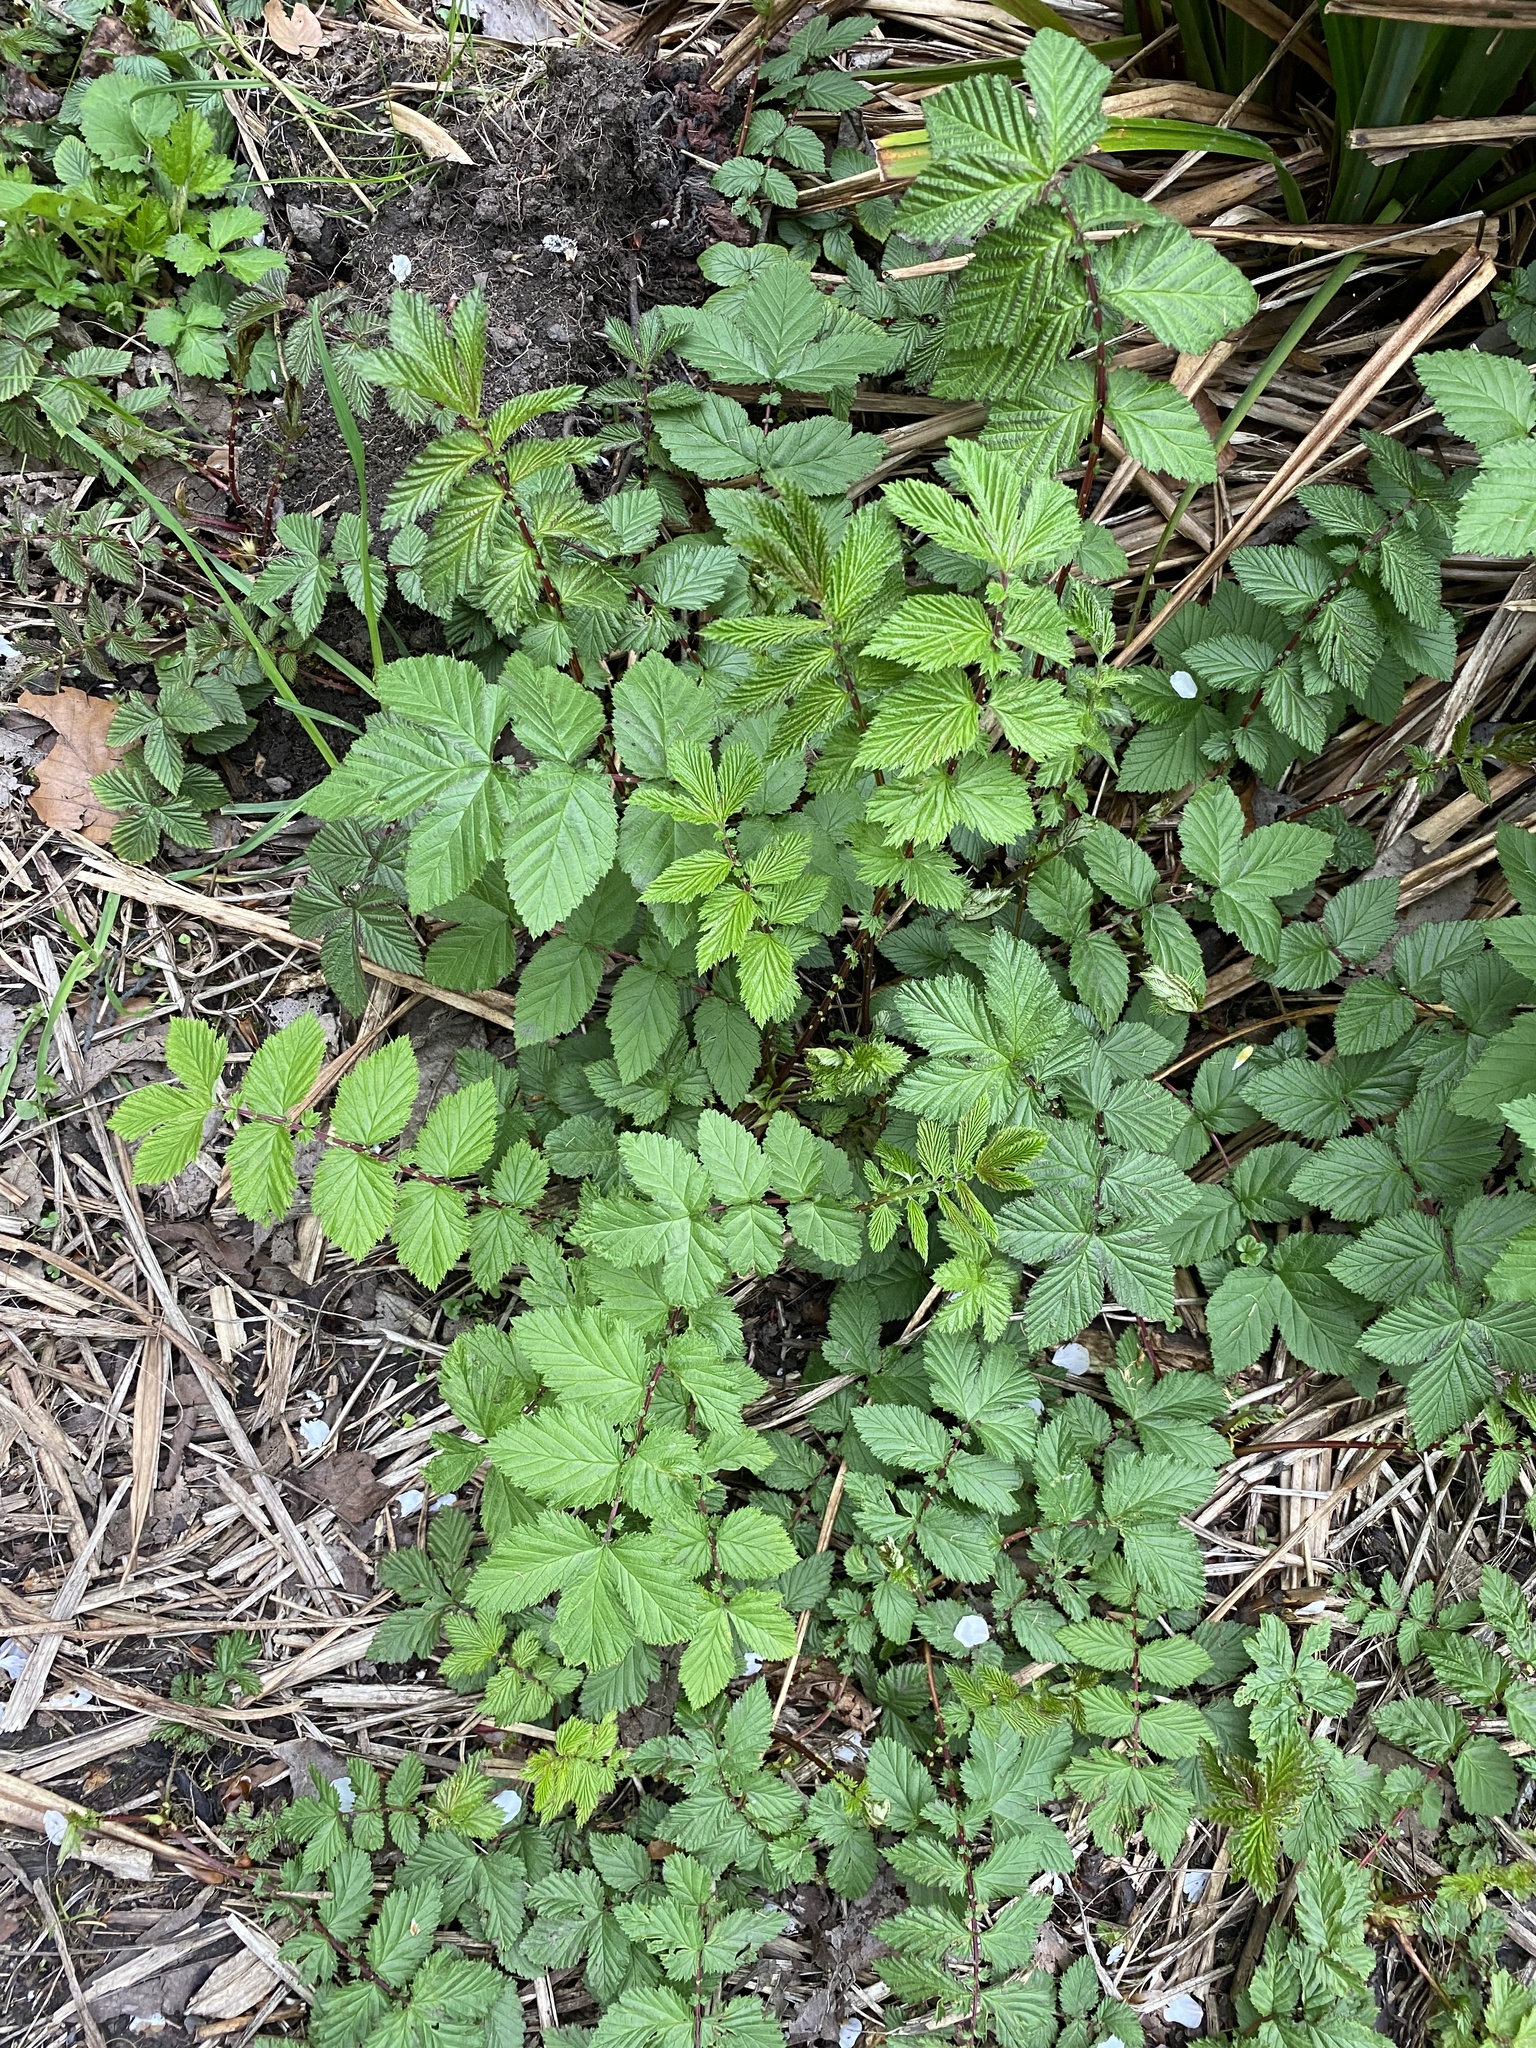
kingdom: Plantae
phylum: Tracheophyta
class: Magnoliopsida
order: Rosales
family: Rosaceae
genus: Filipendula
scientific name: Filipendula ulmaria
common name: Meadowsweet
